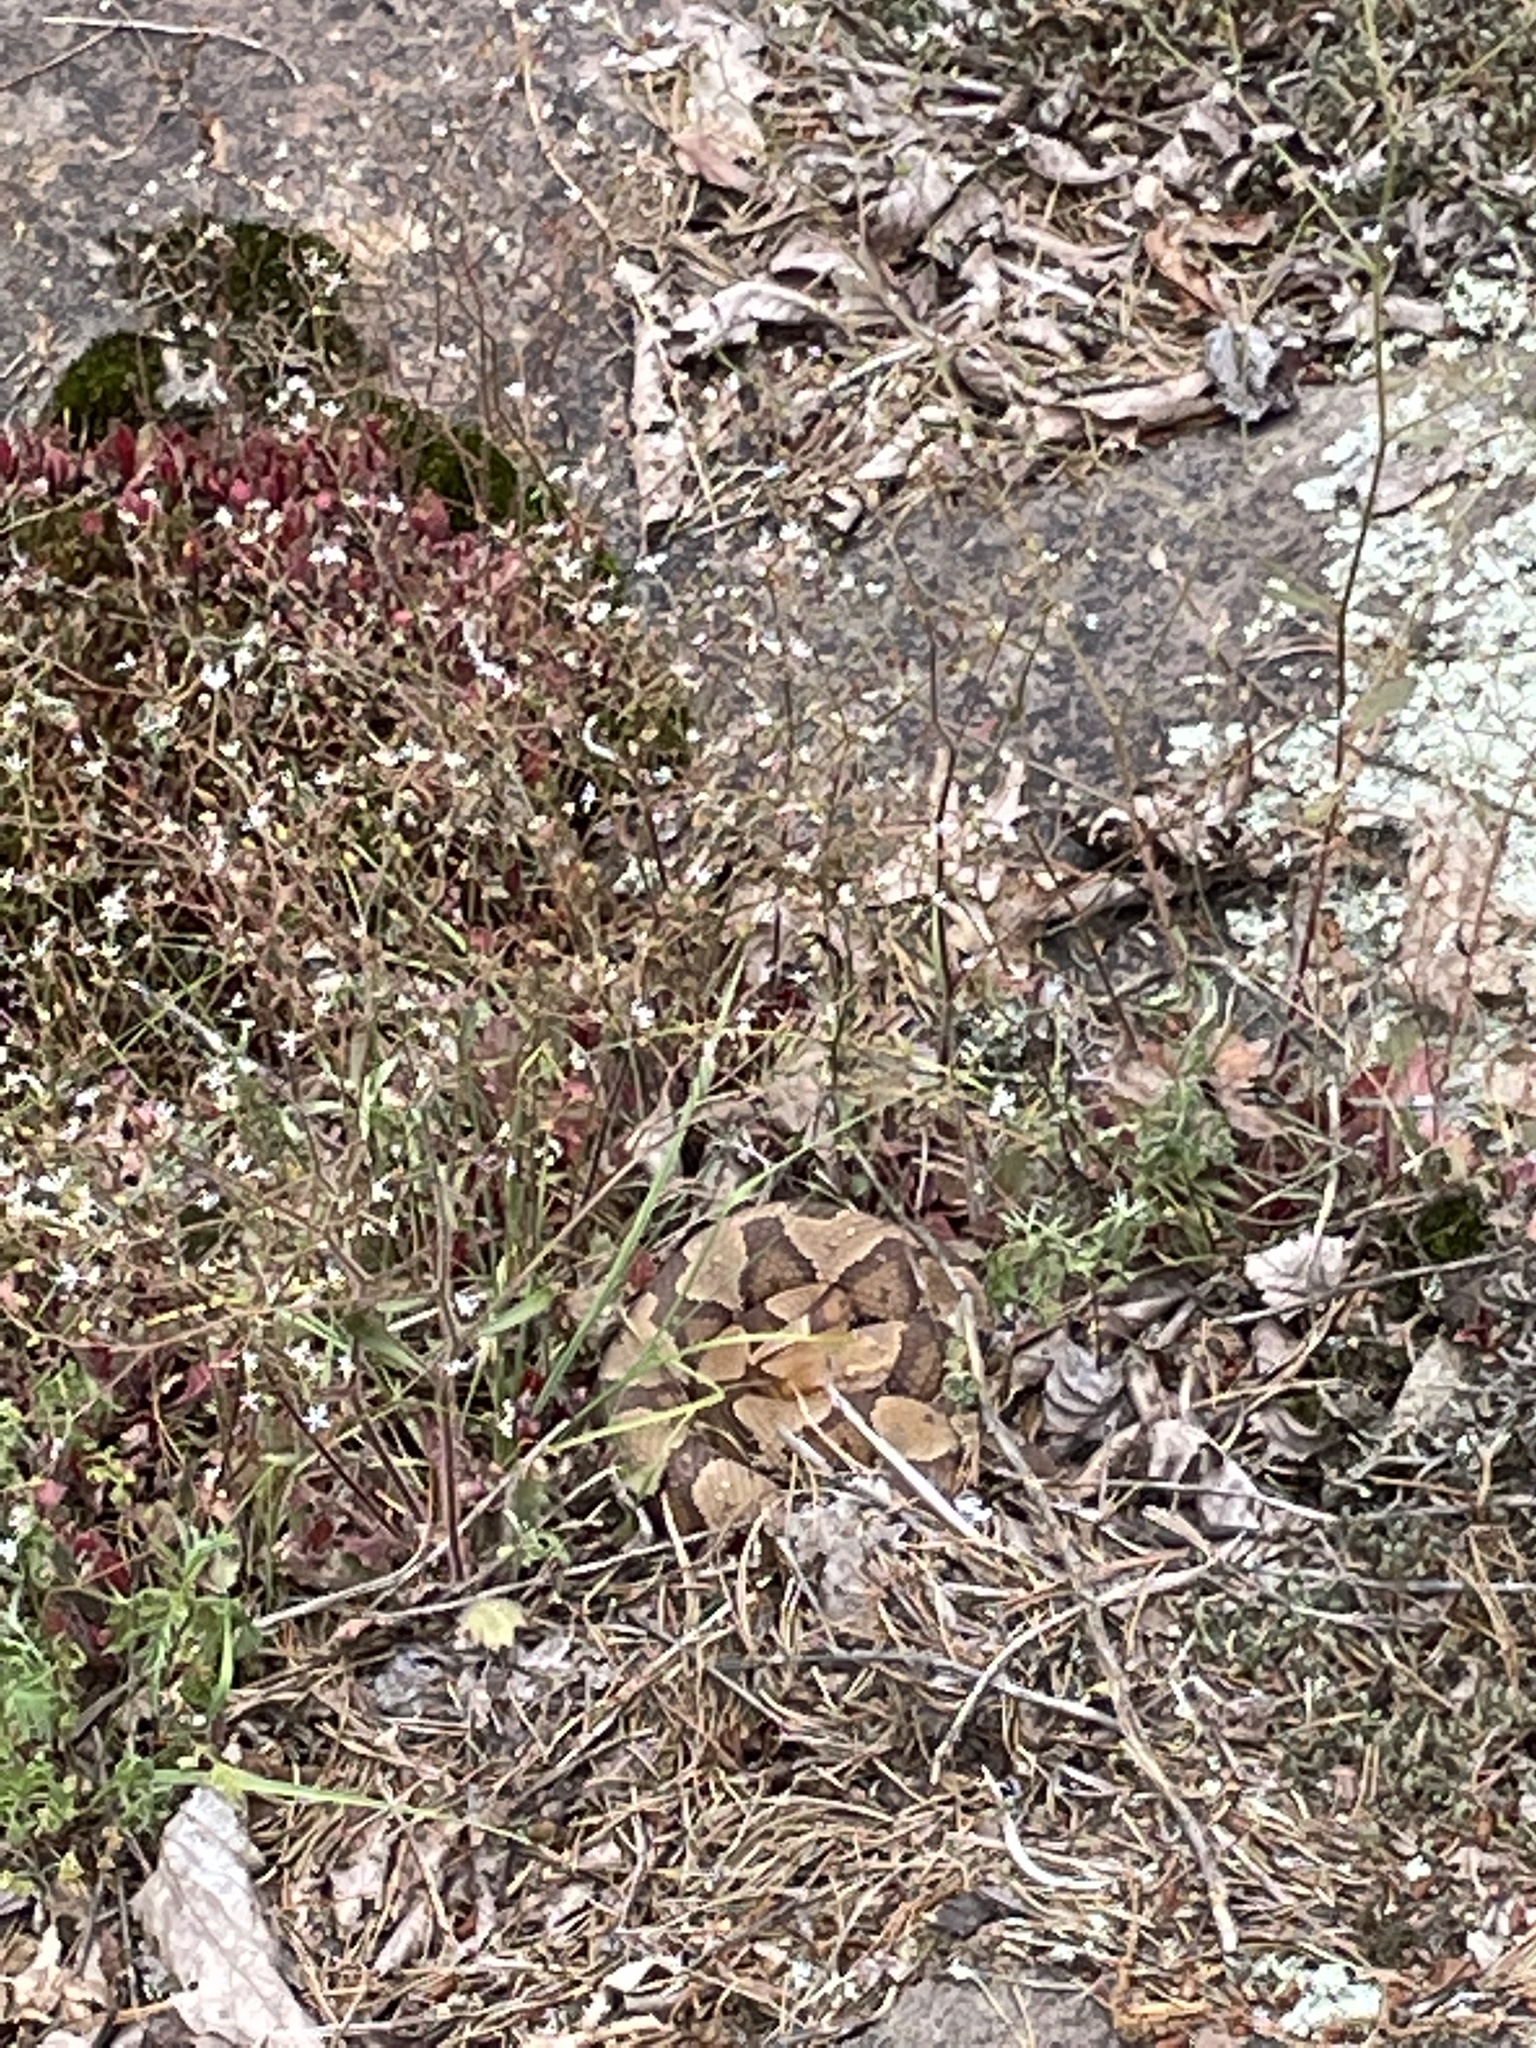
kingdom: Plantae
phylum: Tracheophyta
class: Magnoliopsida
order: Saxifragales
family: Saxifragaceae
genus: Micranthes
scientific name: Micranthes petiolaris
